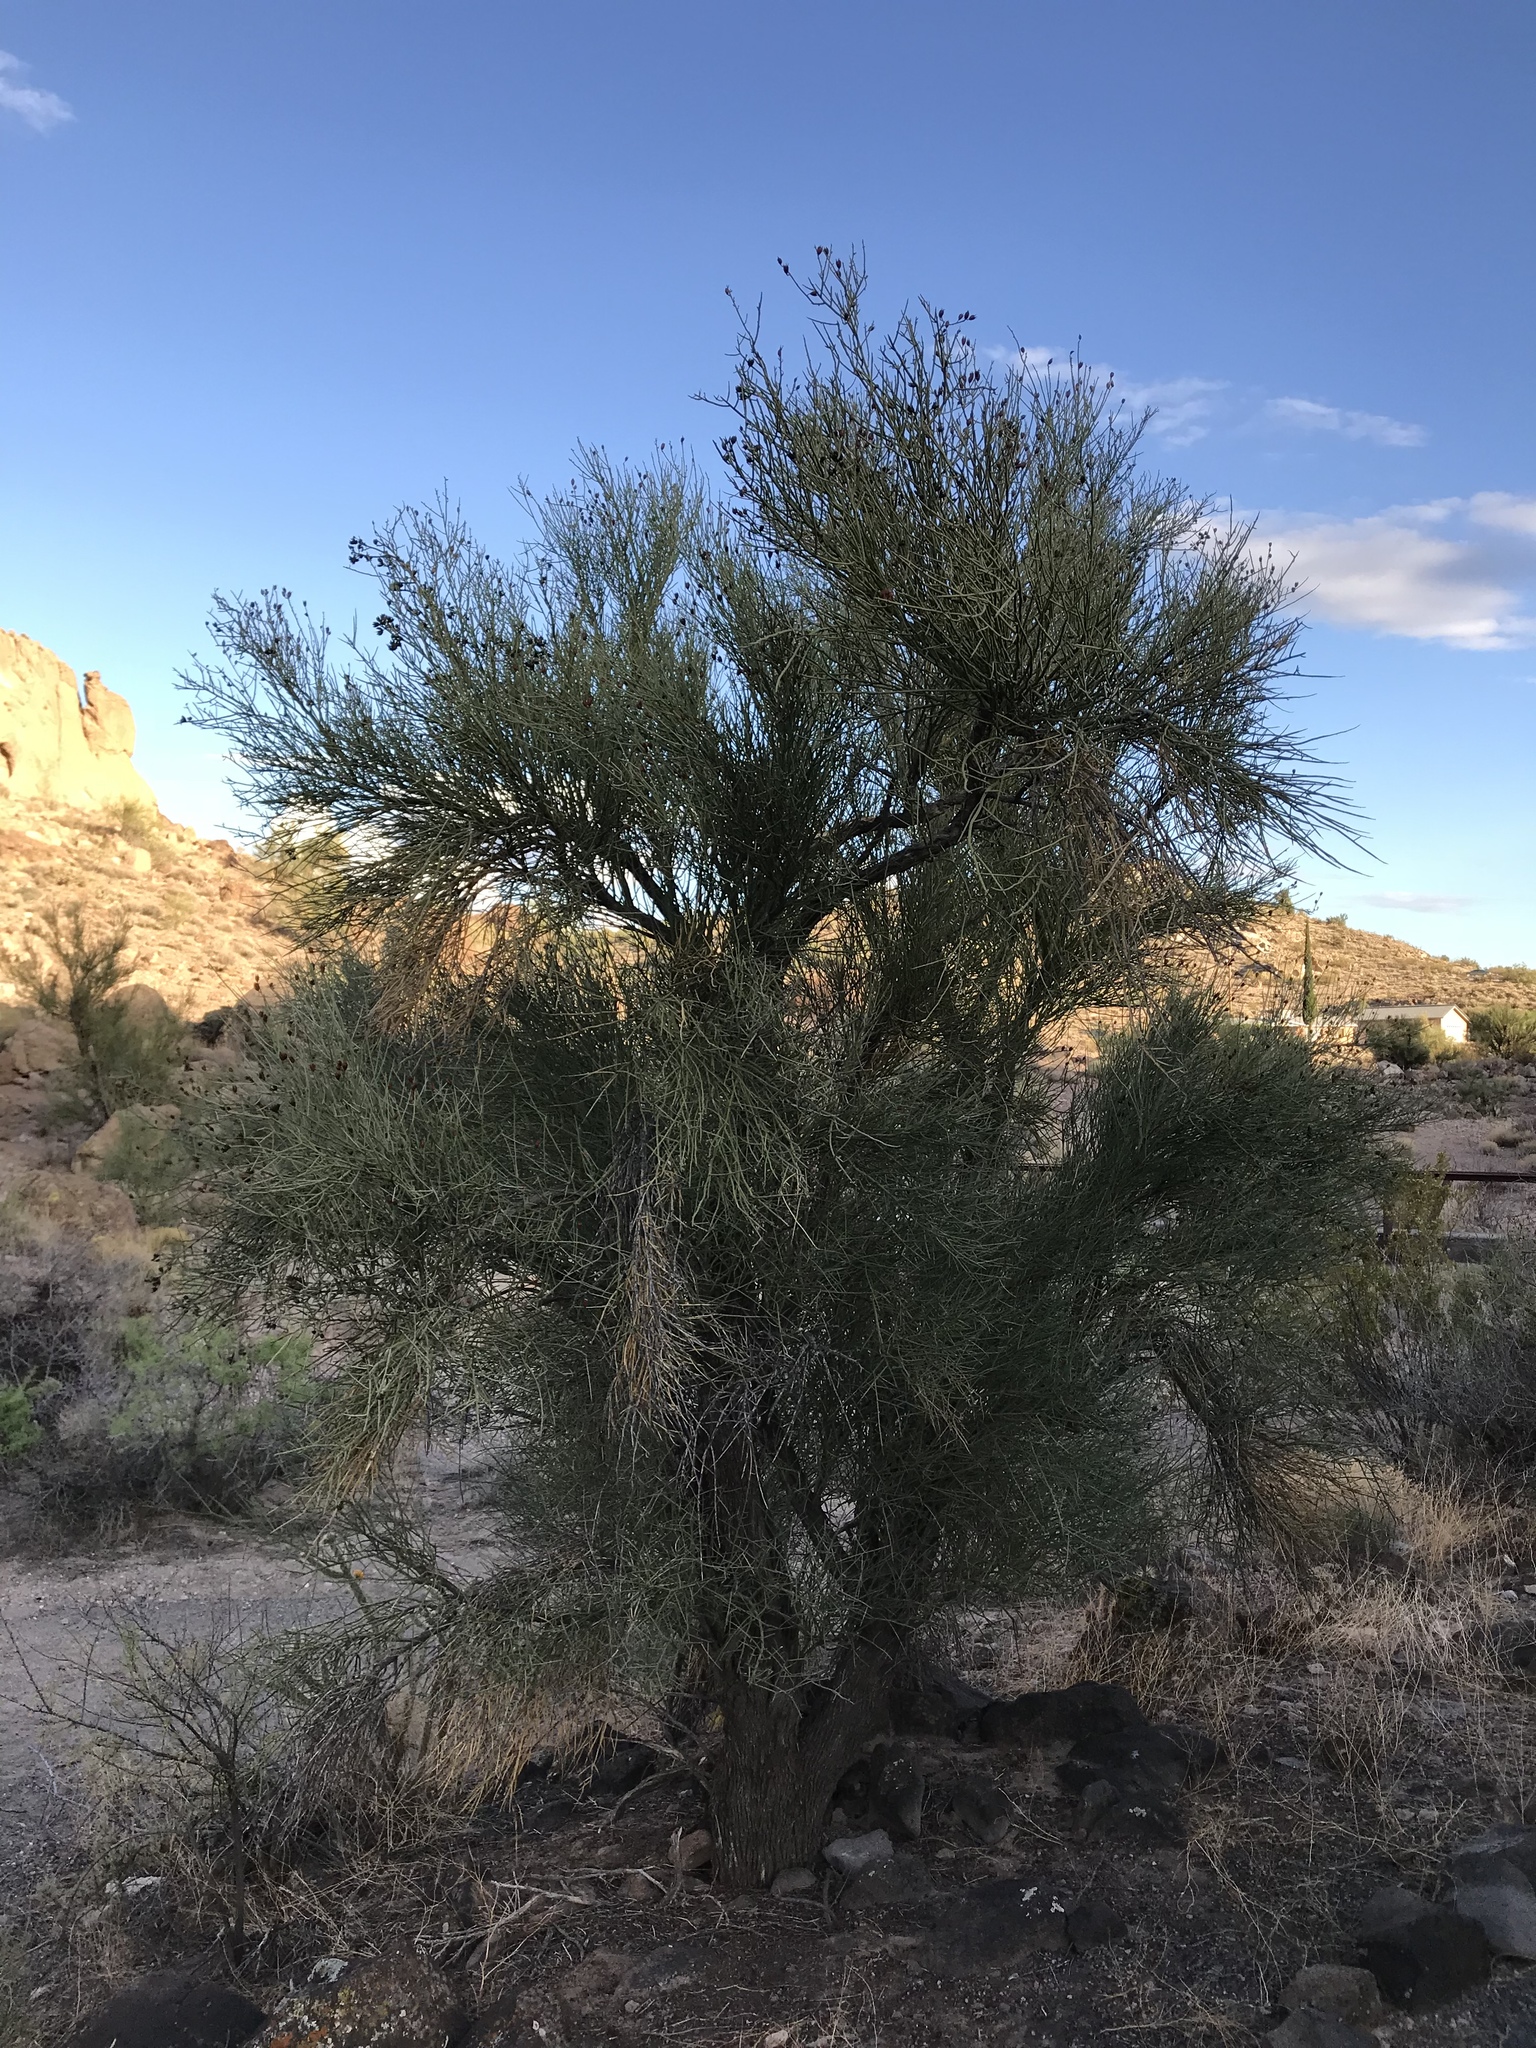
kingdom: Plantae
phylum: Tracheophyta
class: Magnoliopsida
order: Celastrales
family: Celastraceae
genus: Canotia
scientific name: Canotia holacantha
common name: Crucifixion thorns
